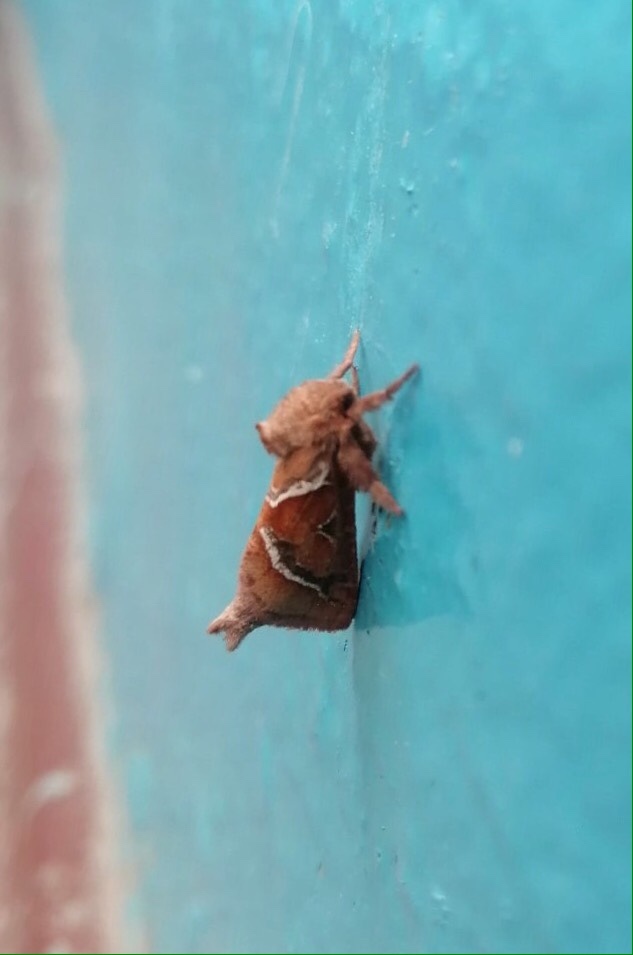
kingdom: Animalia
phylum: Arthropoda
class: Insecta
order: Lepidoptera
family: Hepialidae
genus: Triodia
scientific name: Triodia sylvina
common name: Orange swift
